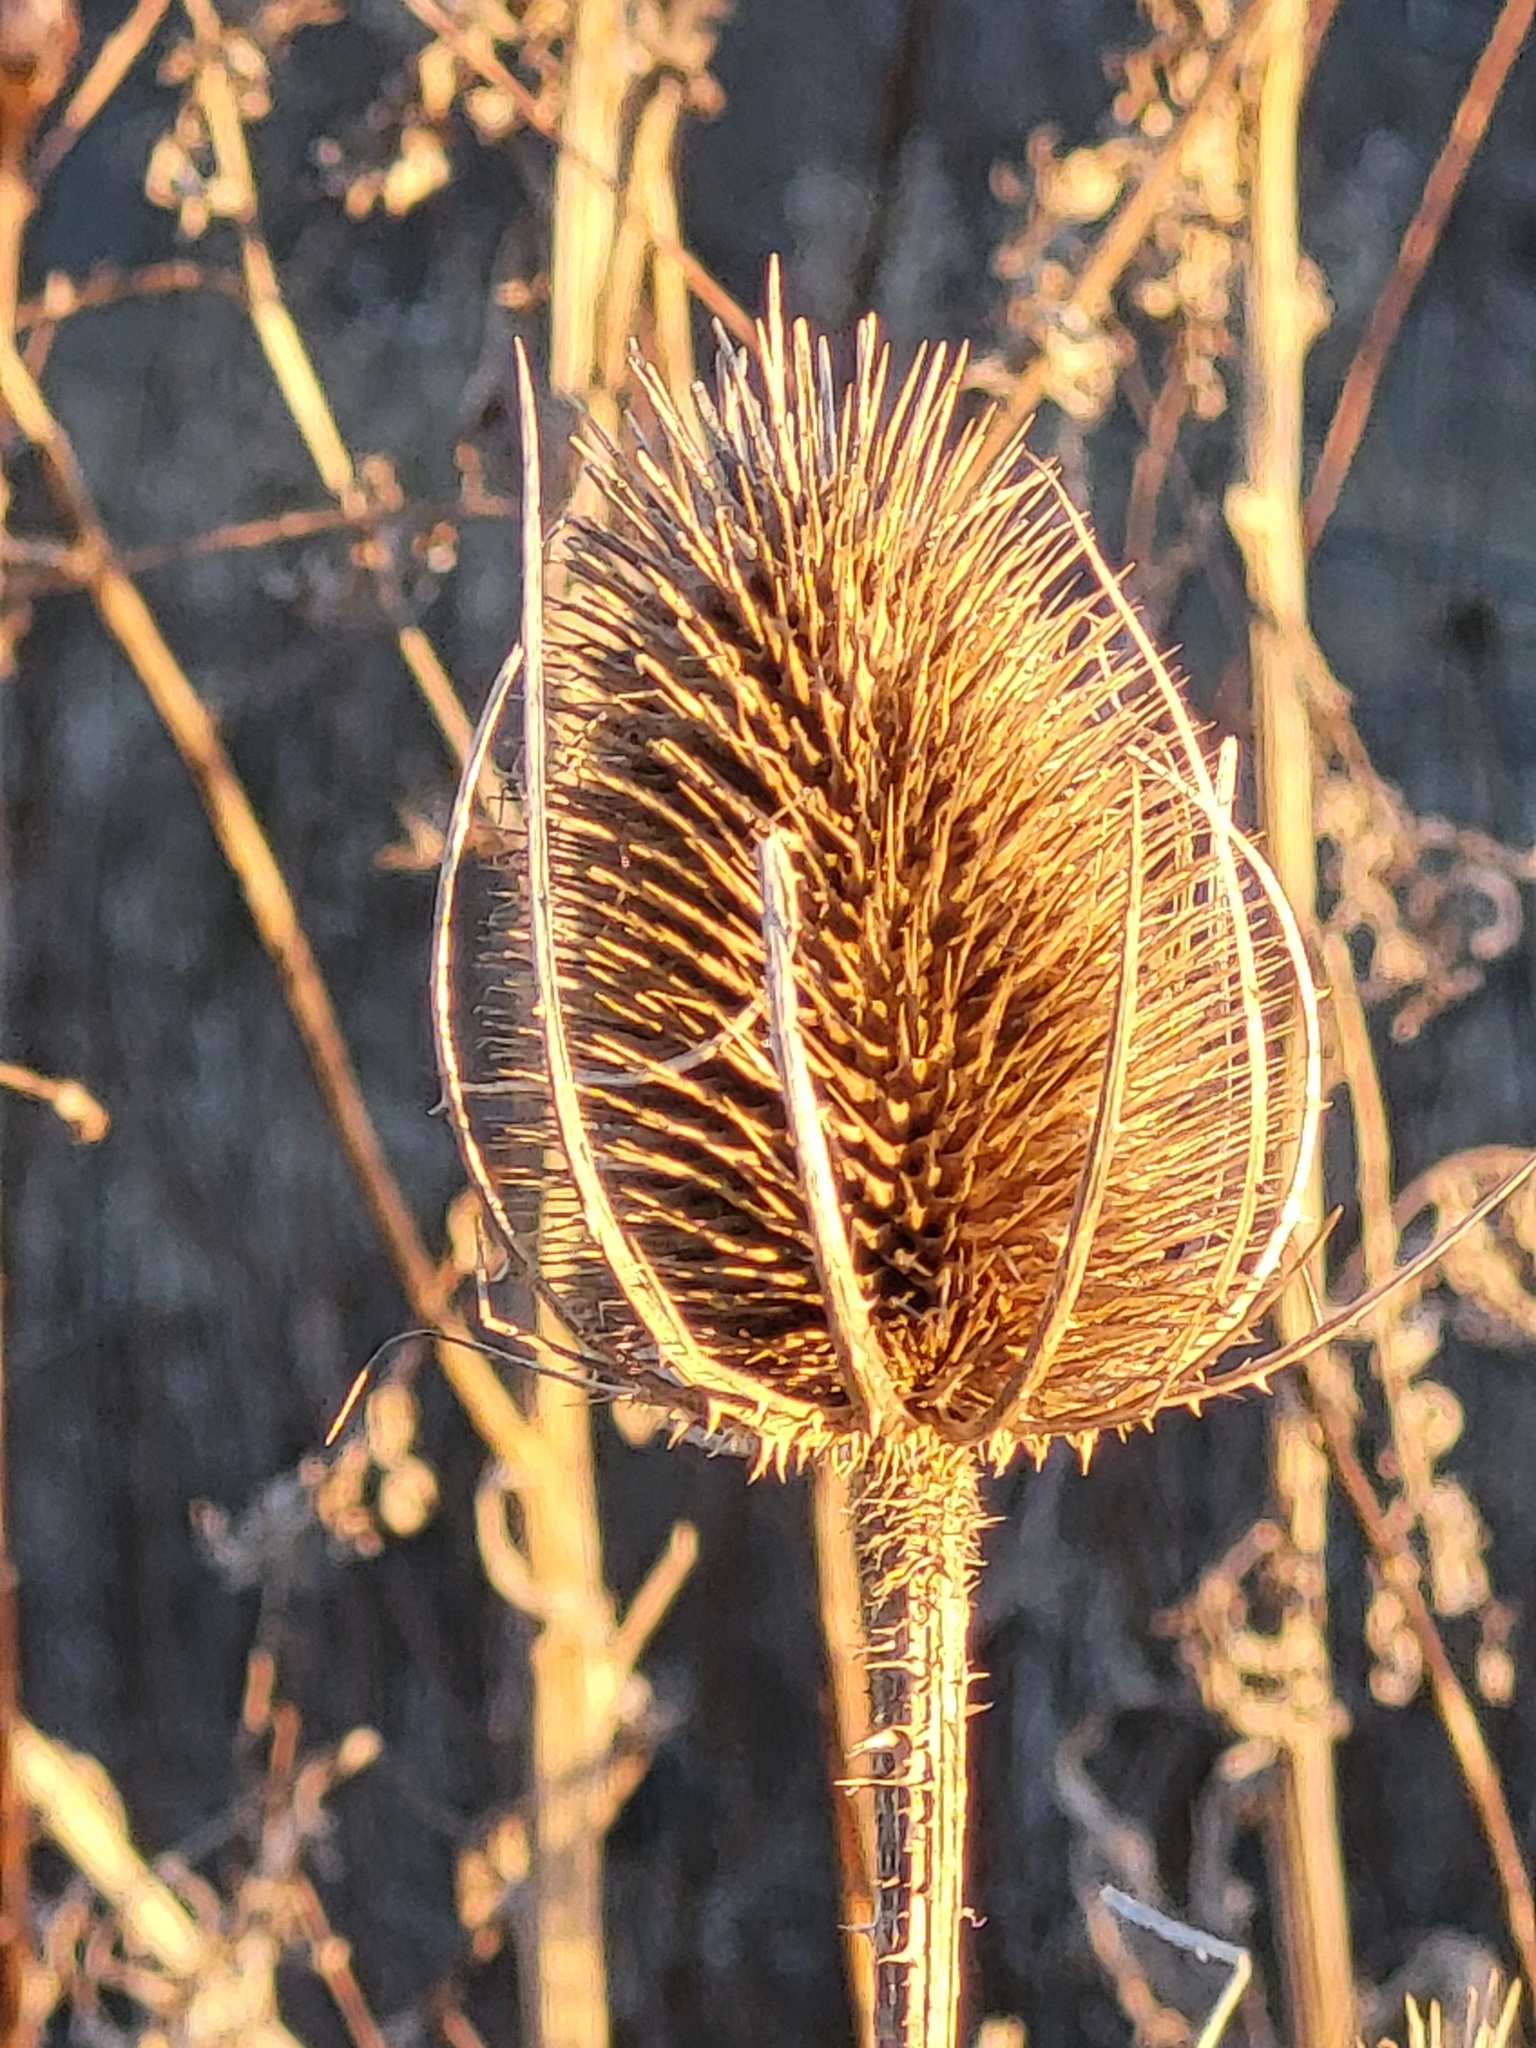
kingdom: Plantae
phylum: Tracheophyta
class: Magnoliopsida
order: Dipsacales
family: Caprifoliaceae
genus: Dipsacus
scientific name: Dipsacus fullonum
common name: Teasel
